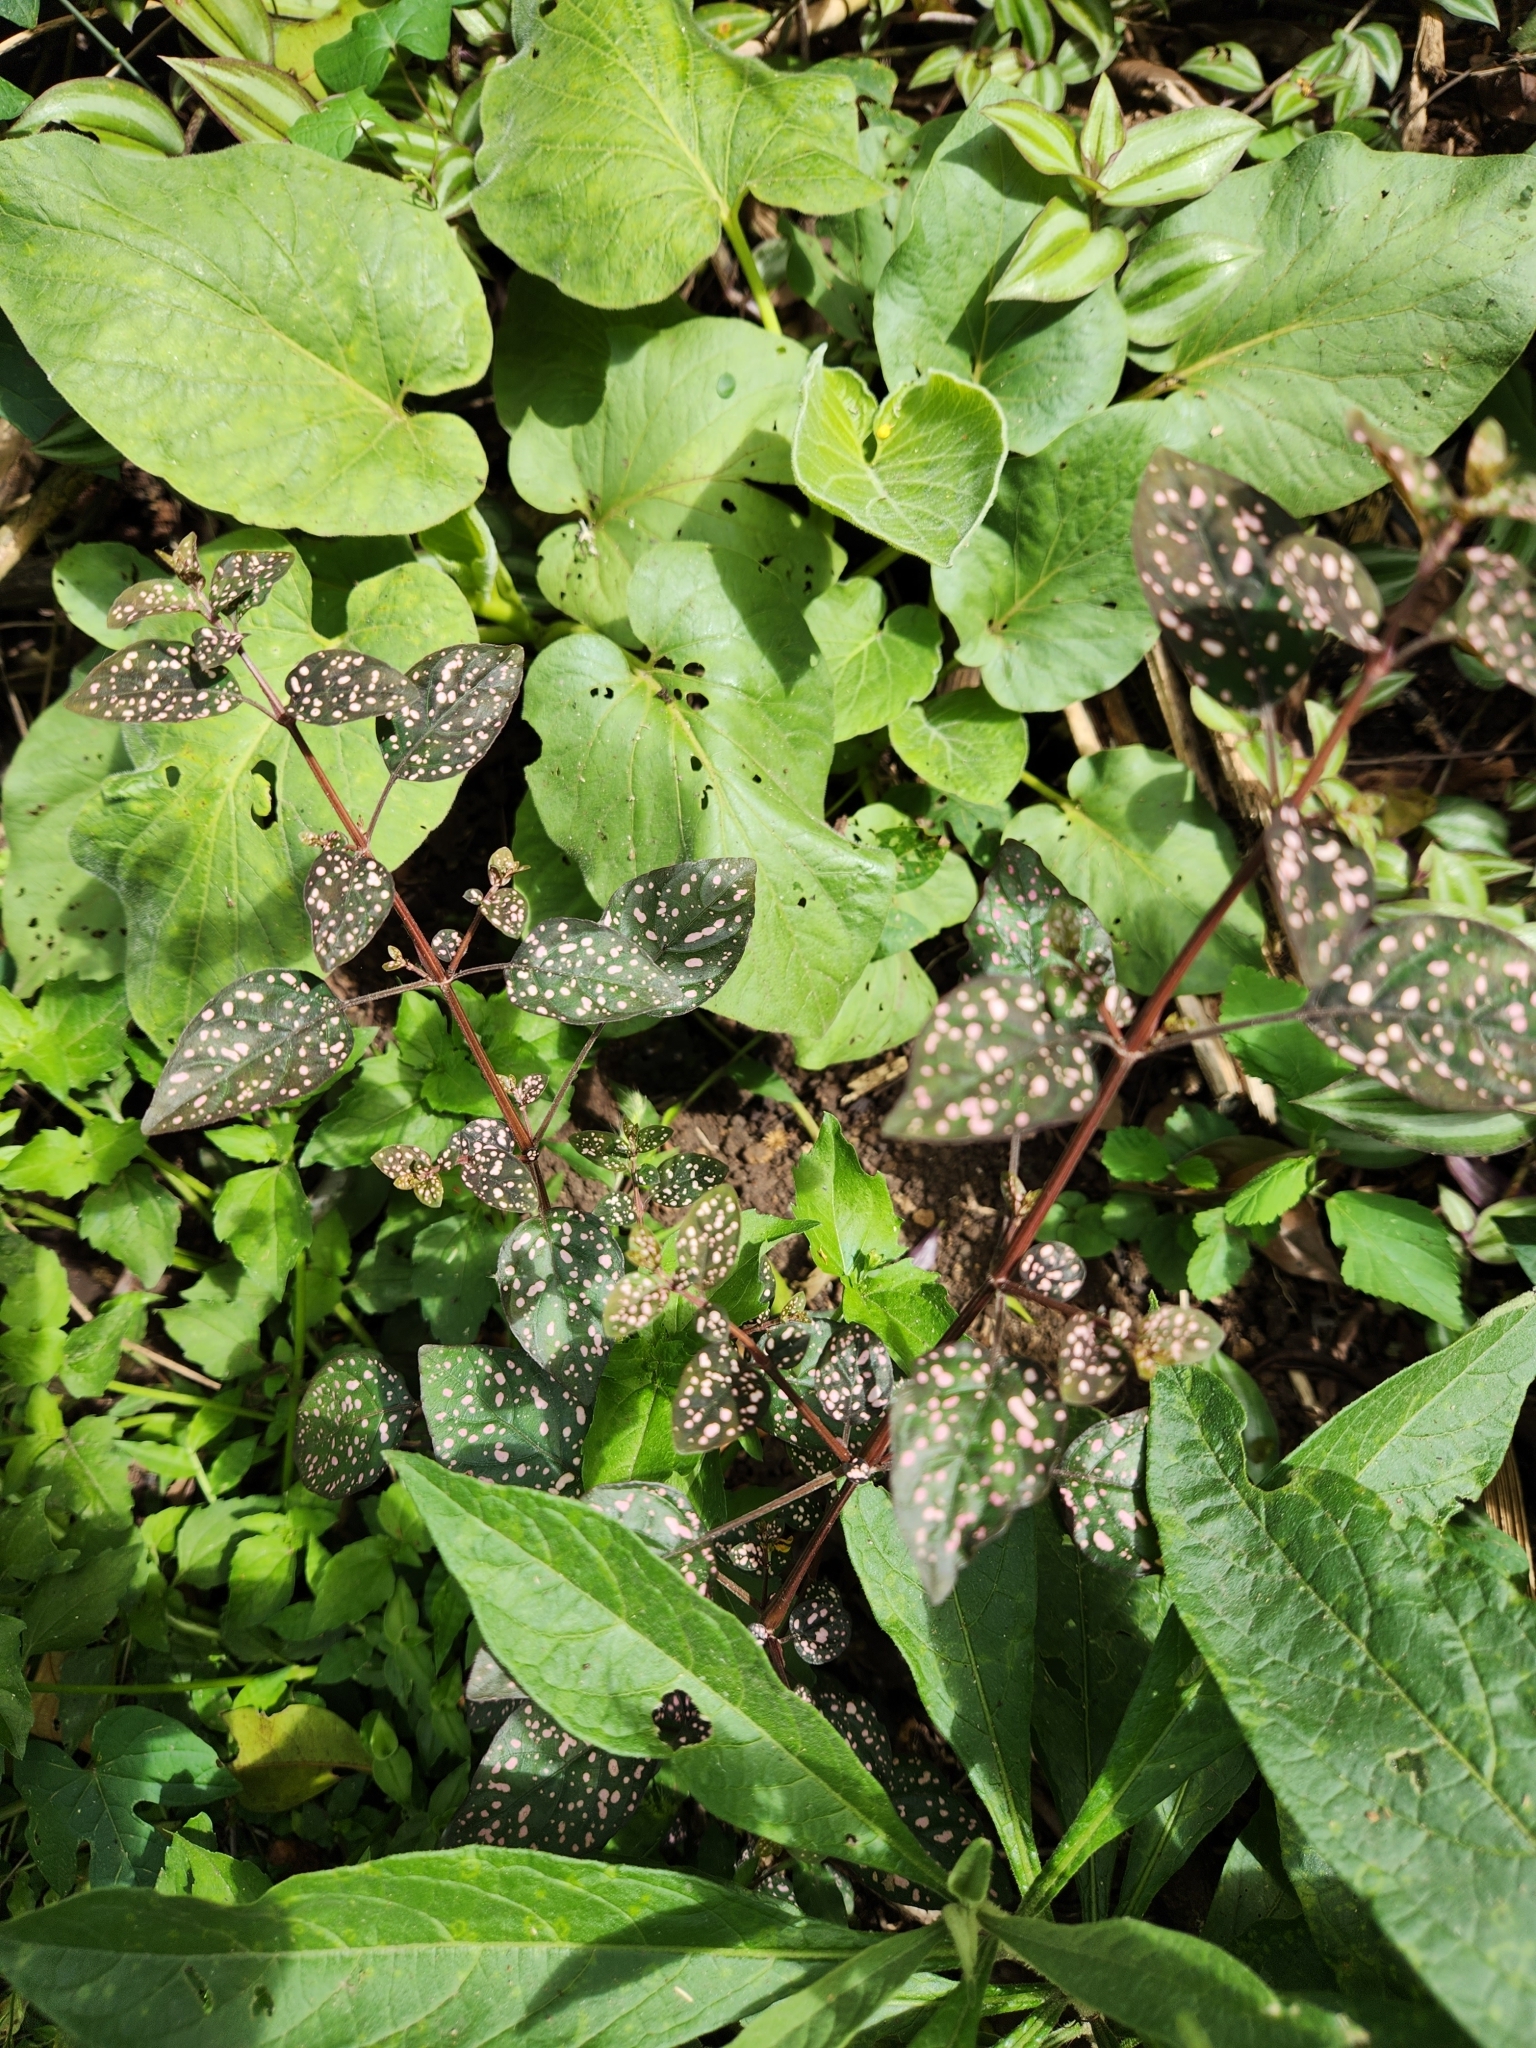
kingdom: Plantae
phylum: Tracheophyta
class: Magnoliopsida
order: Lamiales
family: Acanthaceae
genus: Hypoestes
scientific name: Hypoestes phyllostachya
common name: Polkadot-plant
